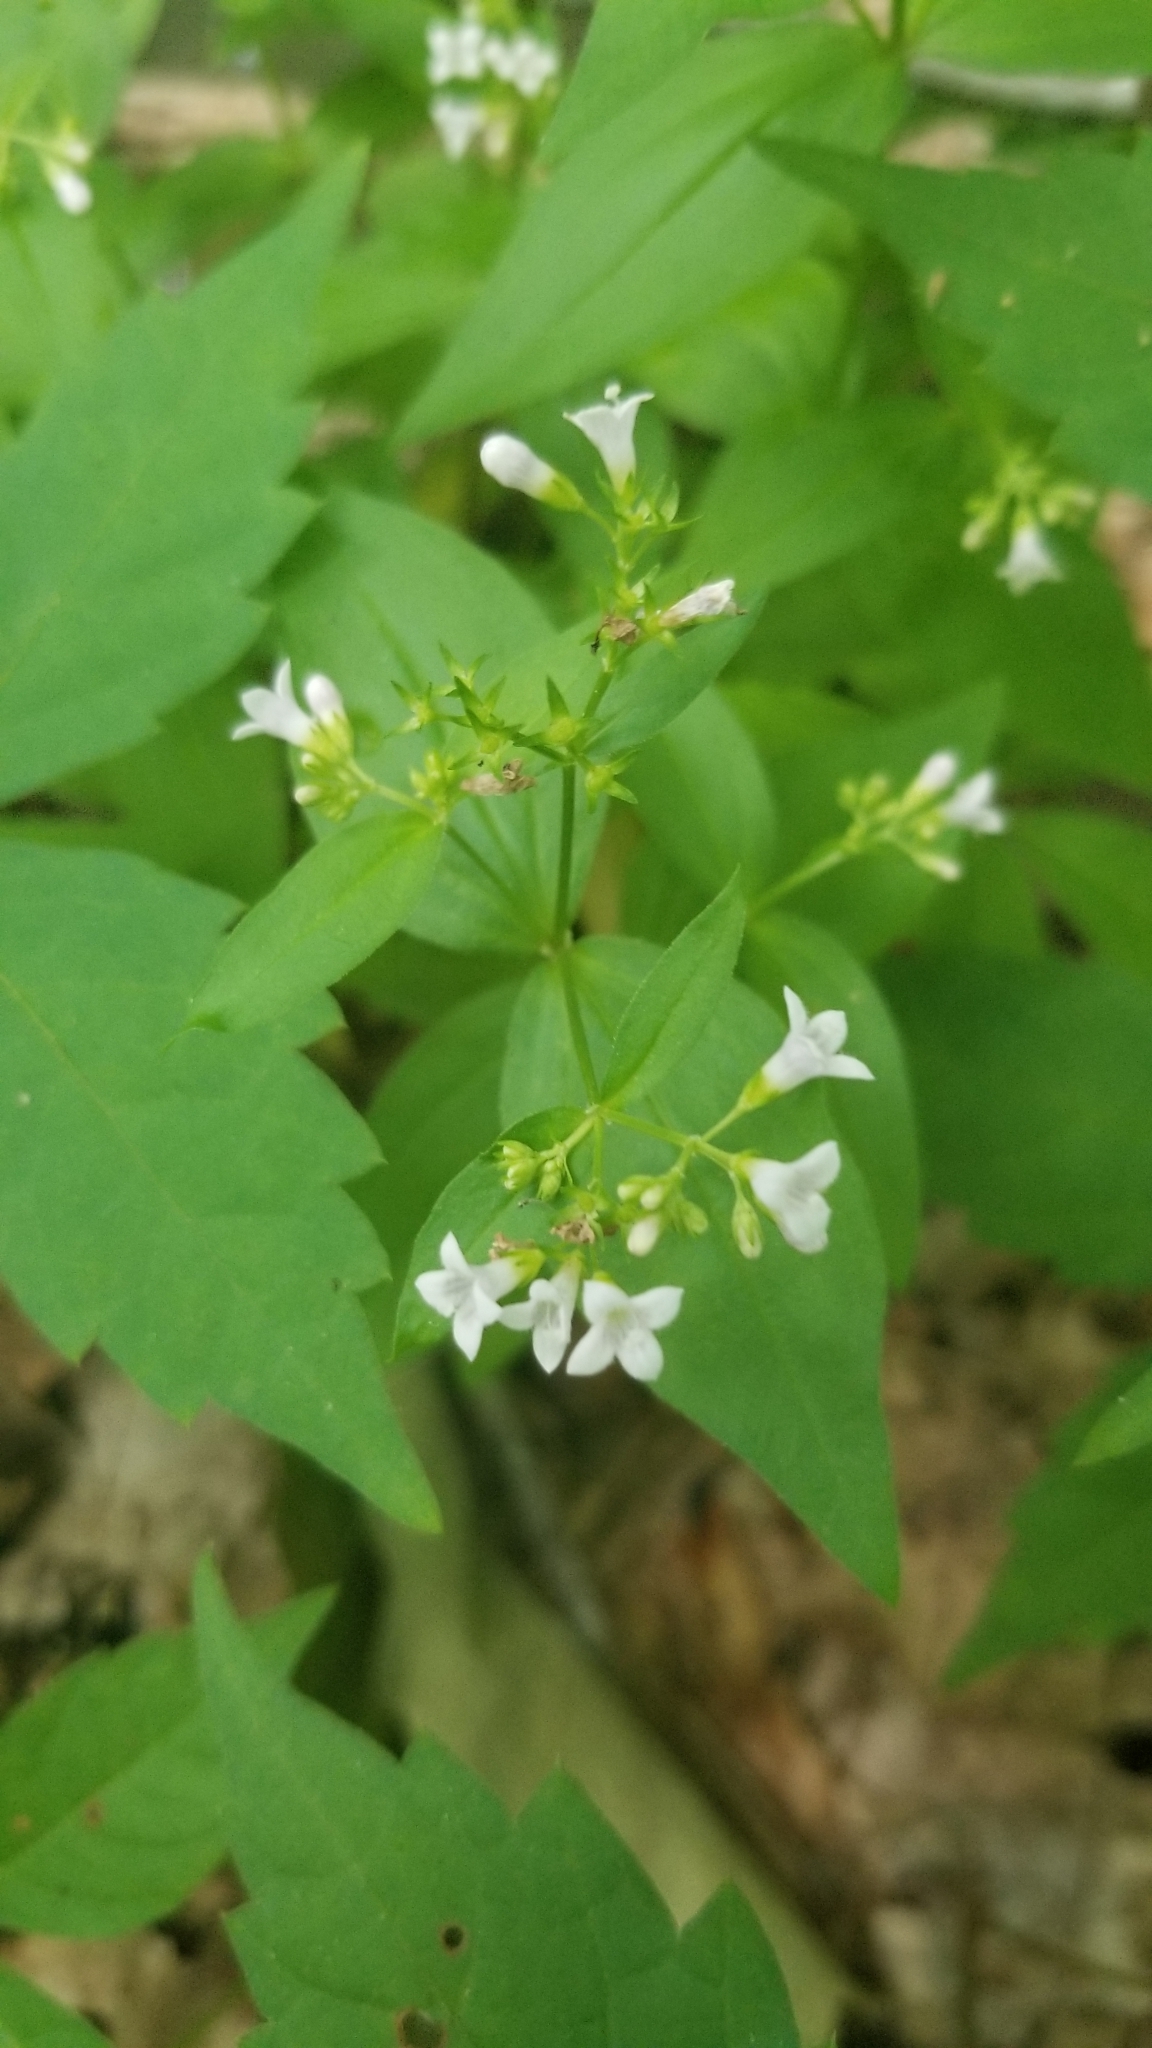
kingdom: Plantae
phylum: Tracheophyta
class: Magnoliopsida
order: Gentianales
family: Rubiaceae
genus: Houstonia
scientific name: Houstonia purpurea
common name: Summer bluet
